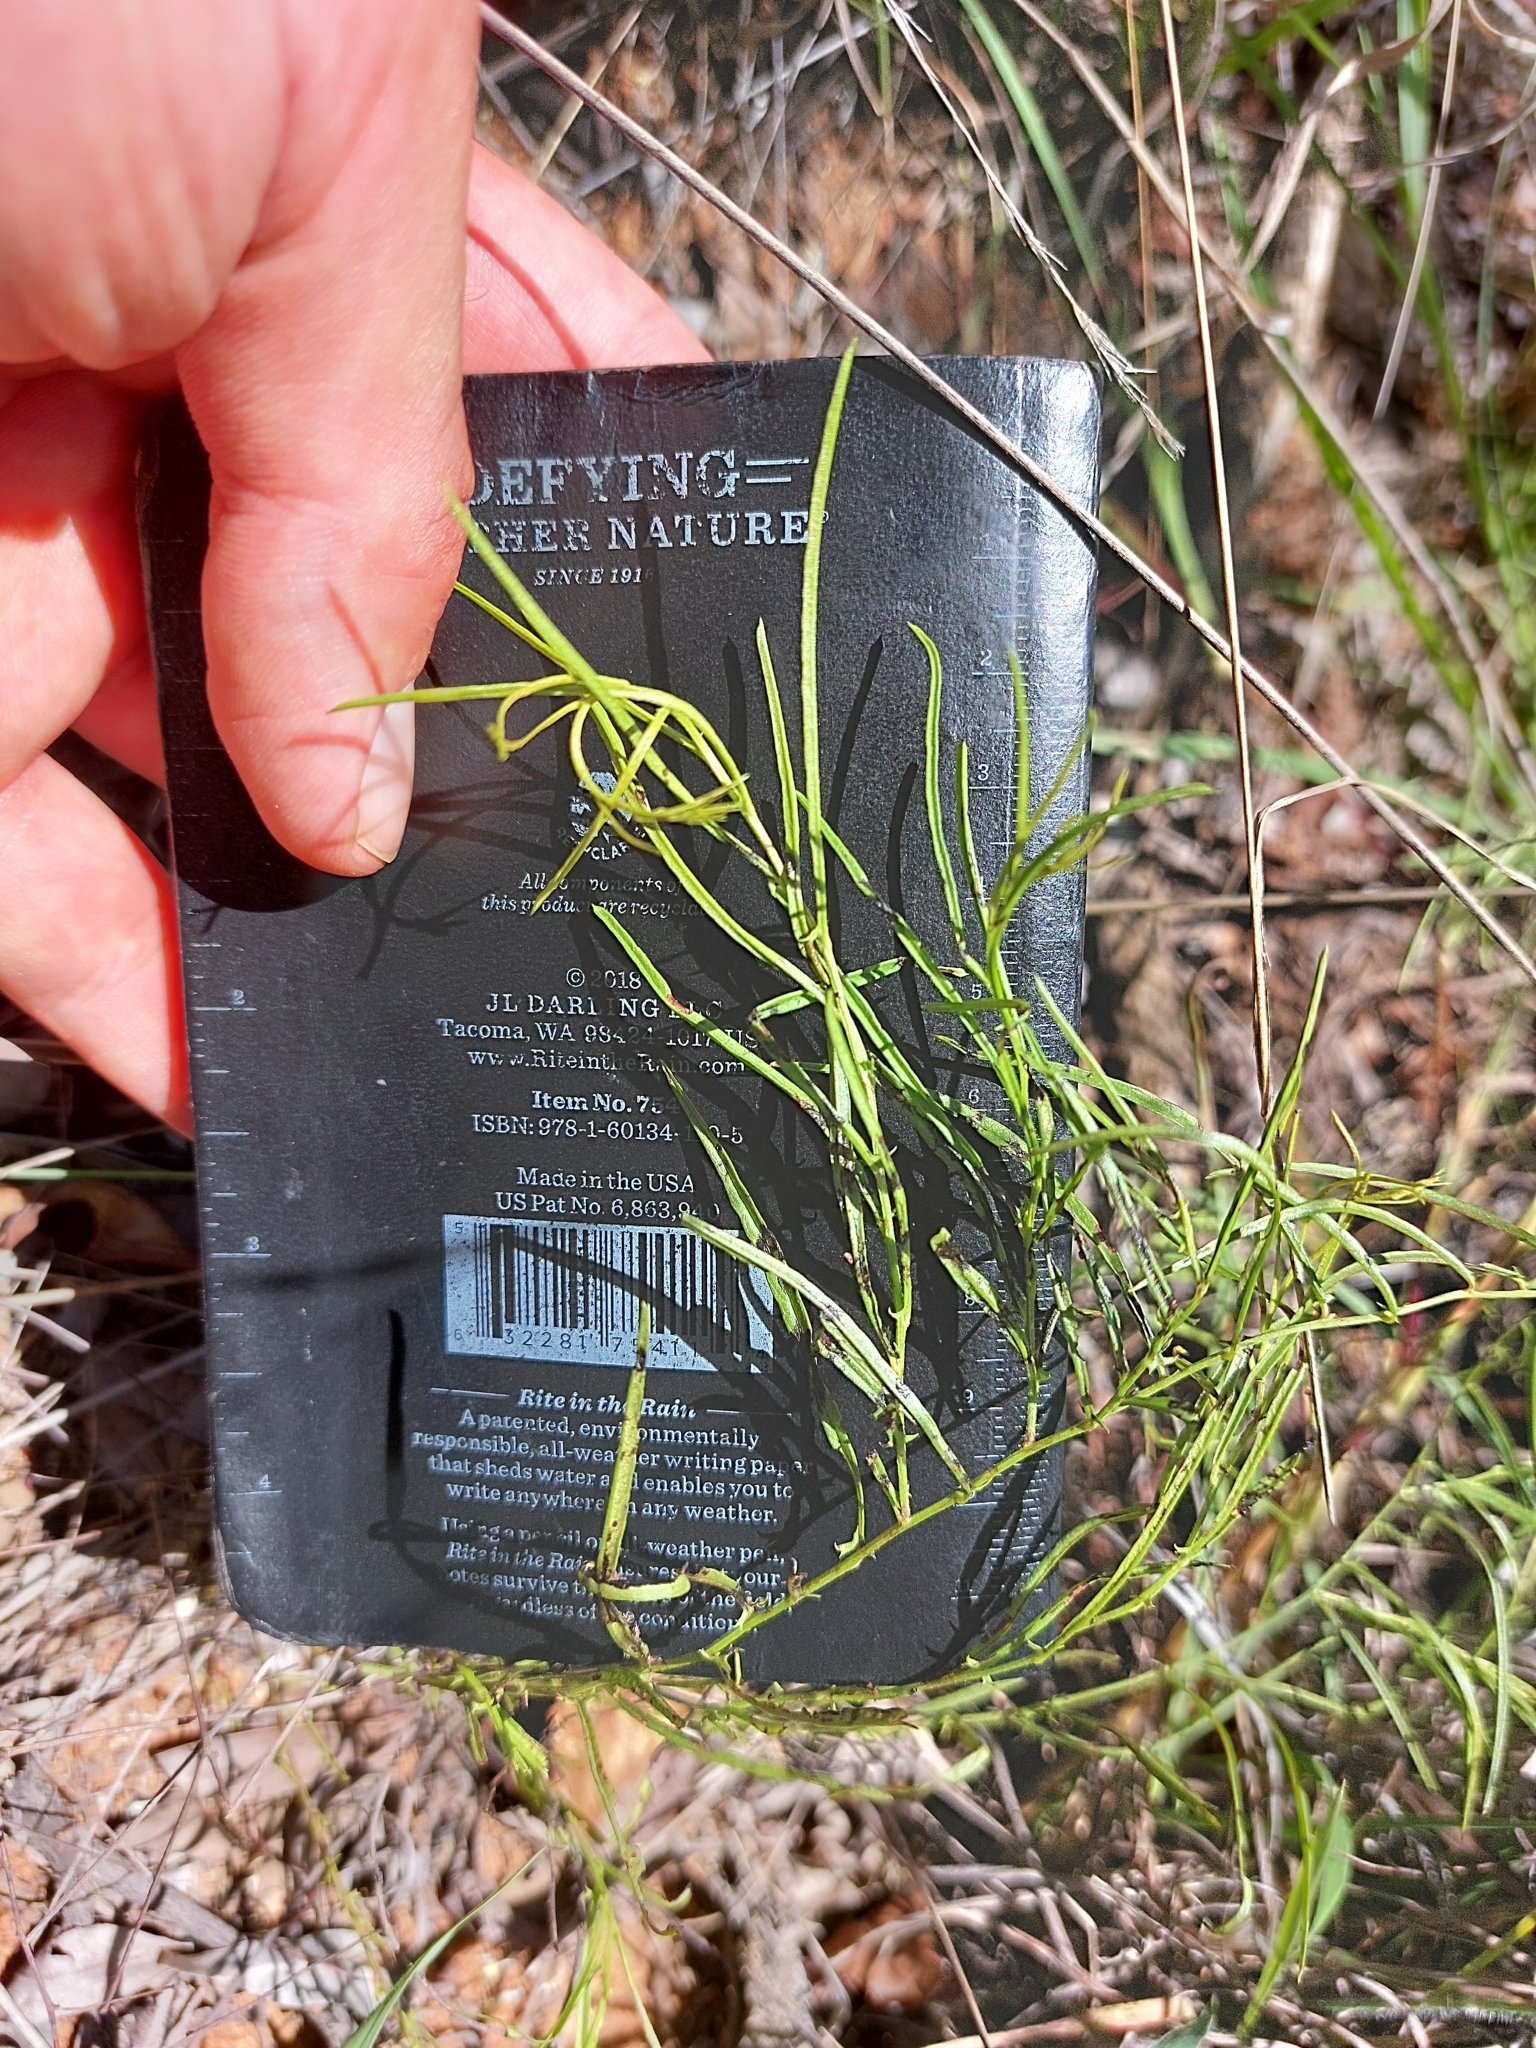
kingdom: Plantae
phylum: Tracheophyta
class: Magnoliopsida
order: Solanales
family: Convolvulaceae
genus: Xenostegia
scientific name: Xenostegia tridentata
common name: African morningvine
